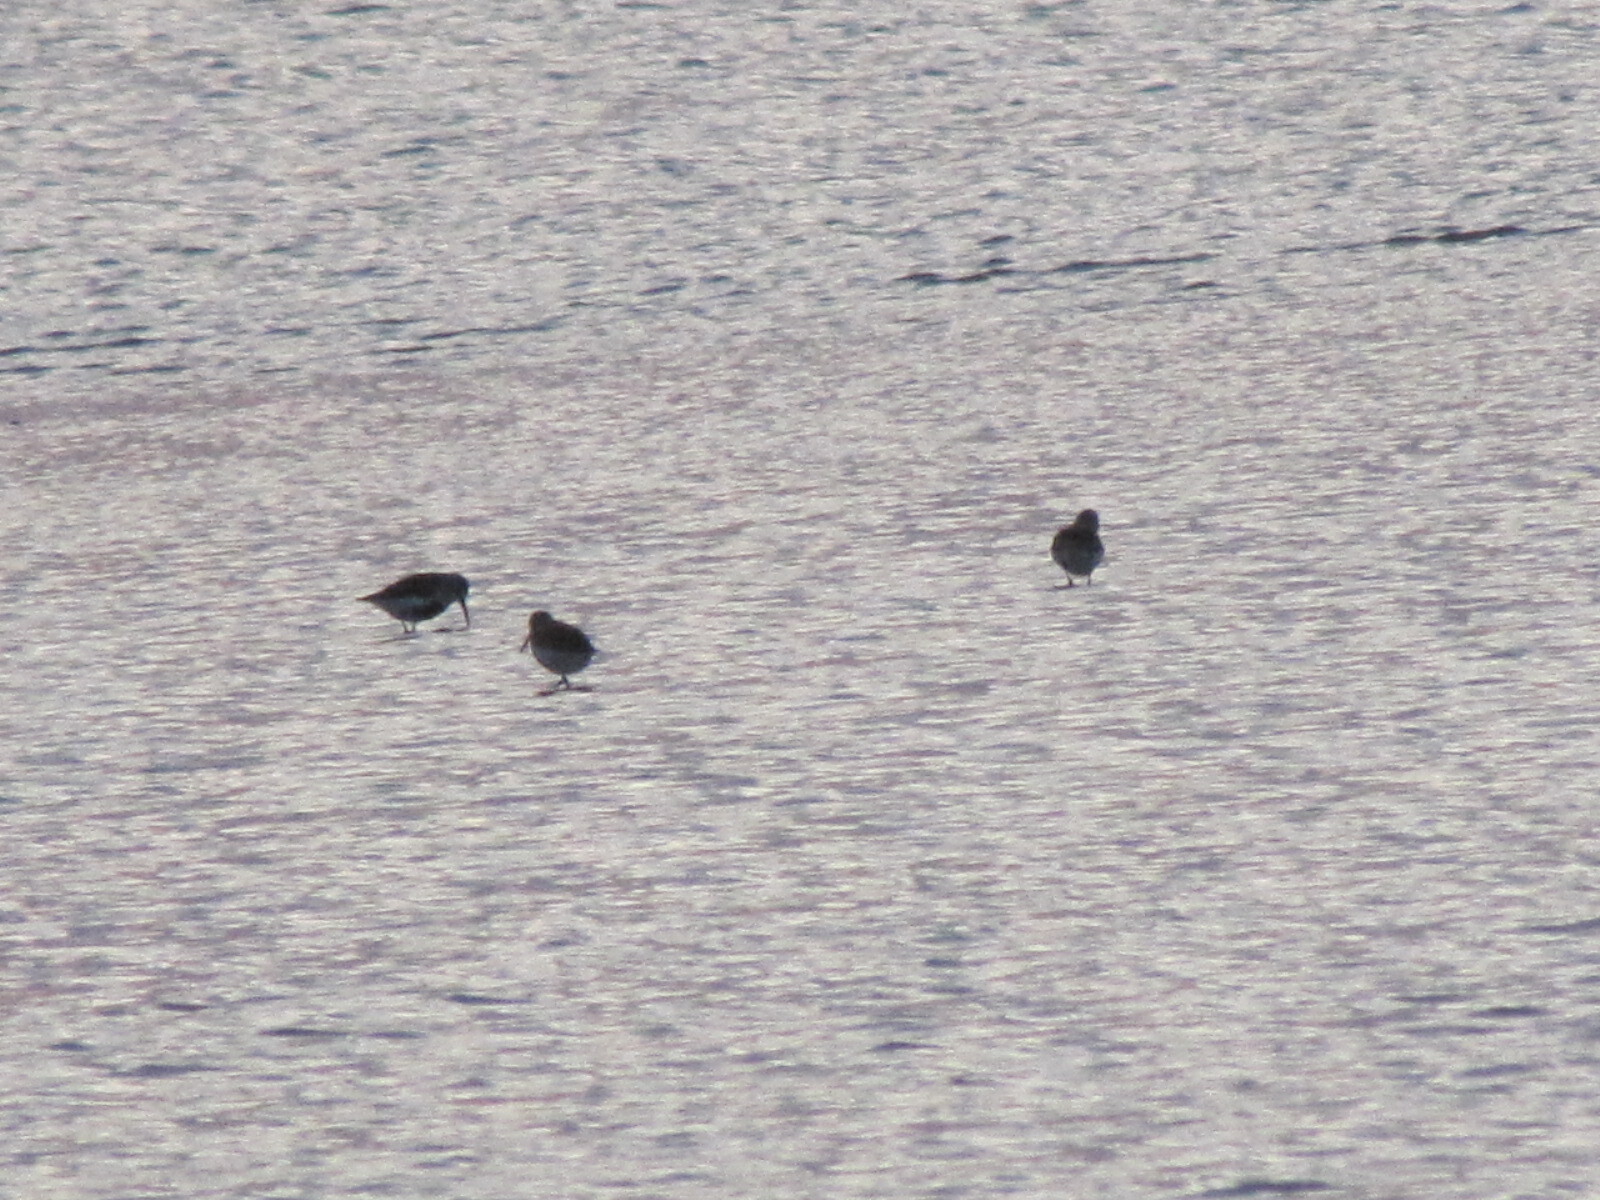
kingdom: Animalia
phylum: Chordata
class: Aves
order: Charadriiformes
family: Scolopacidae
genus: Calidris
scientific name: Calidris alpina
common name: Dunlin
